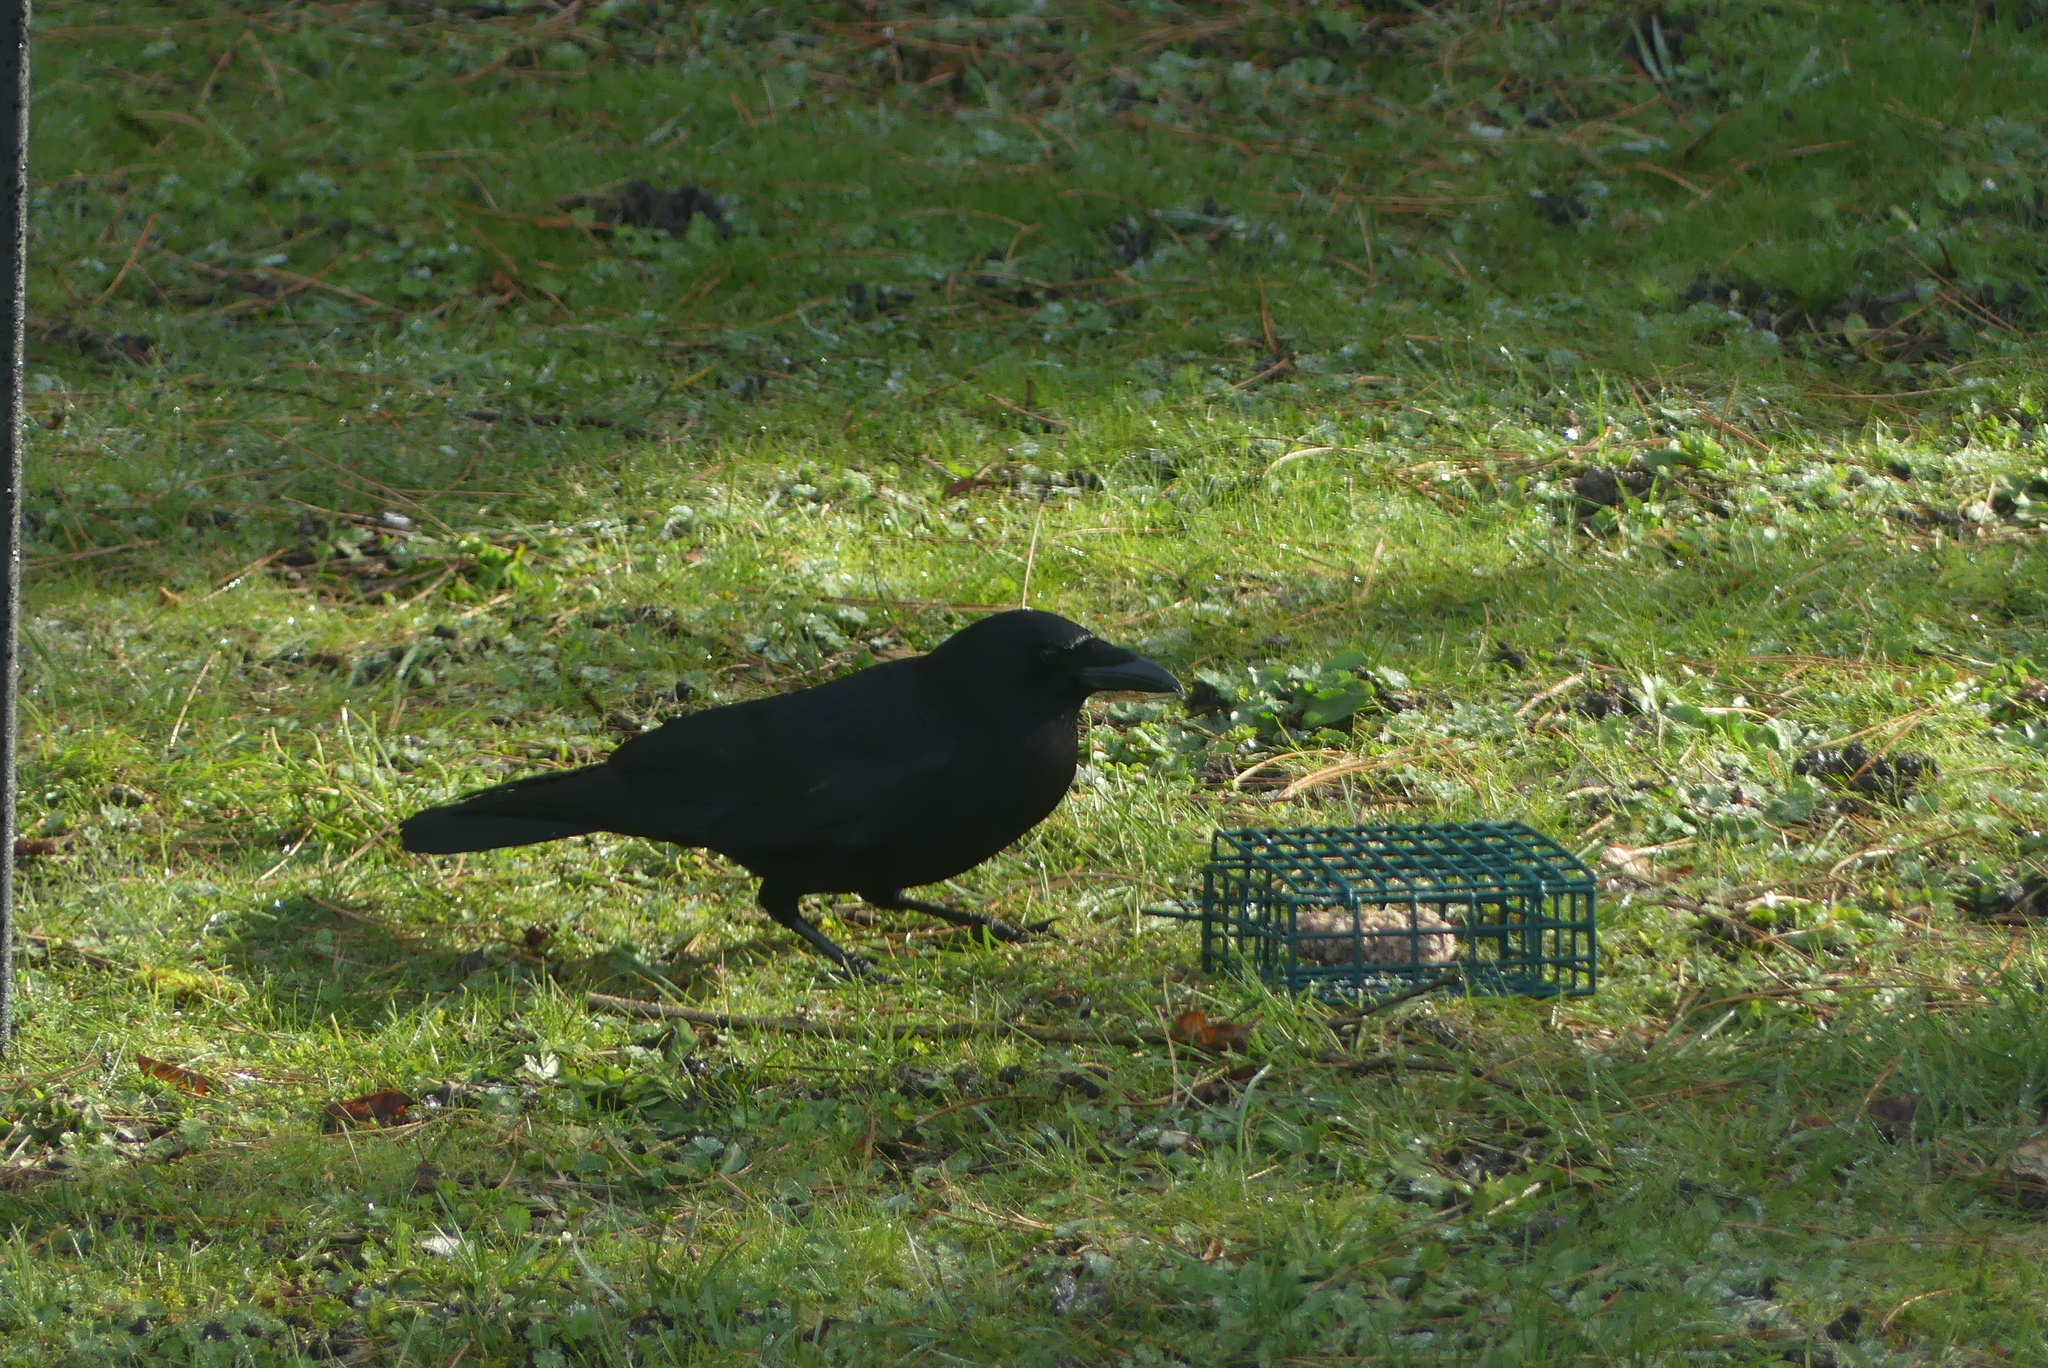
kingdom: Animalia
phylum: Chordata
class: Aves
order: Passeriformes
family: Corvidae
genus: Corvus
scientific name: Corvus brachyrhynchos
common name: American crow
